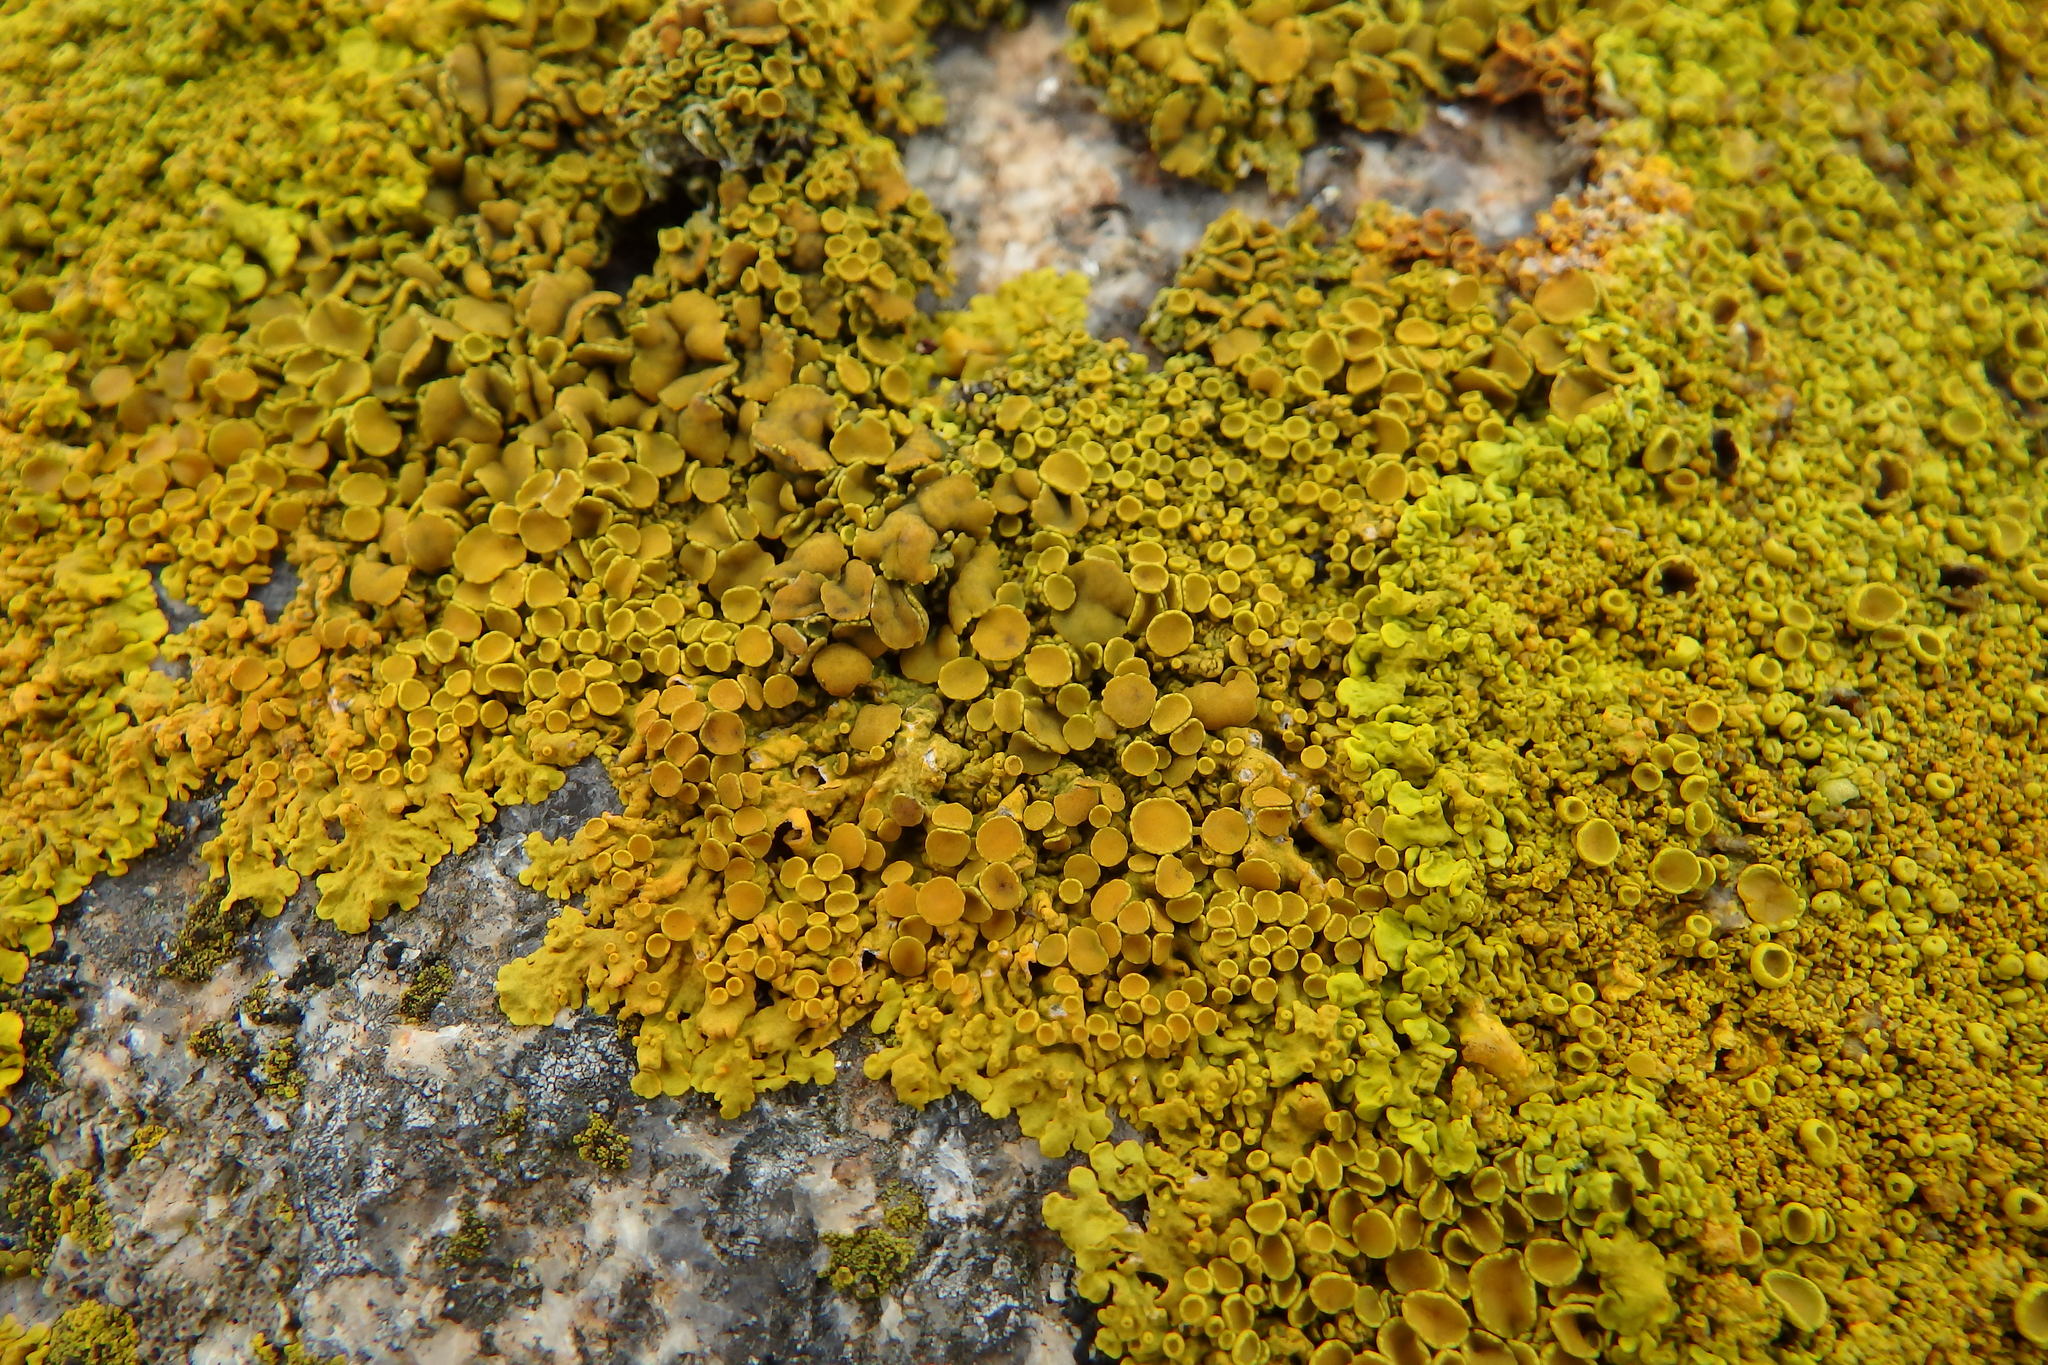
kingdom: Fungi
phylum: Ascomycota
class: Lecanoromycetes
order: Teloschistales
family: Teloschistaceae
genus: Xanthoria
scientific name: Xanthoria parietina
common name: Common orange lichen
